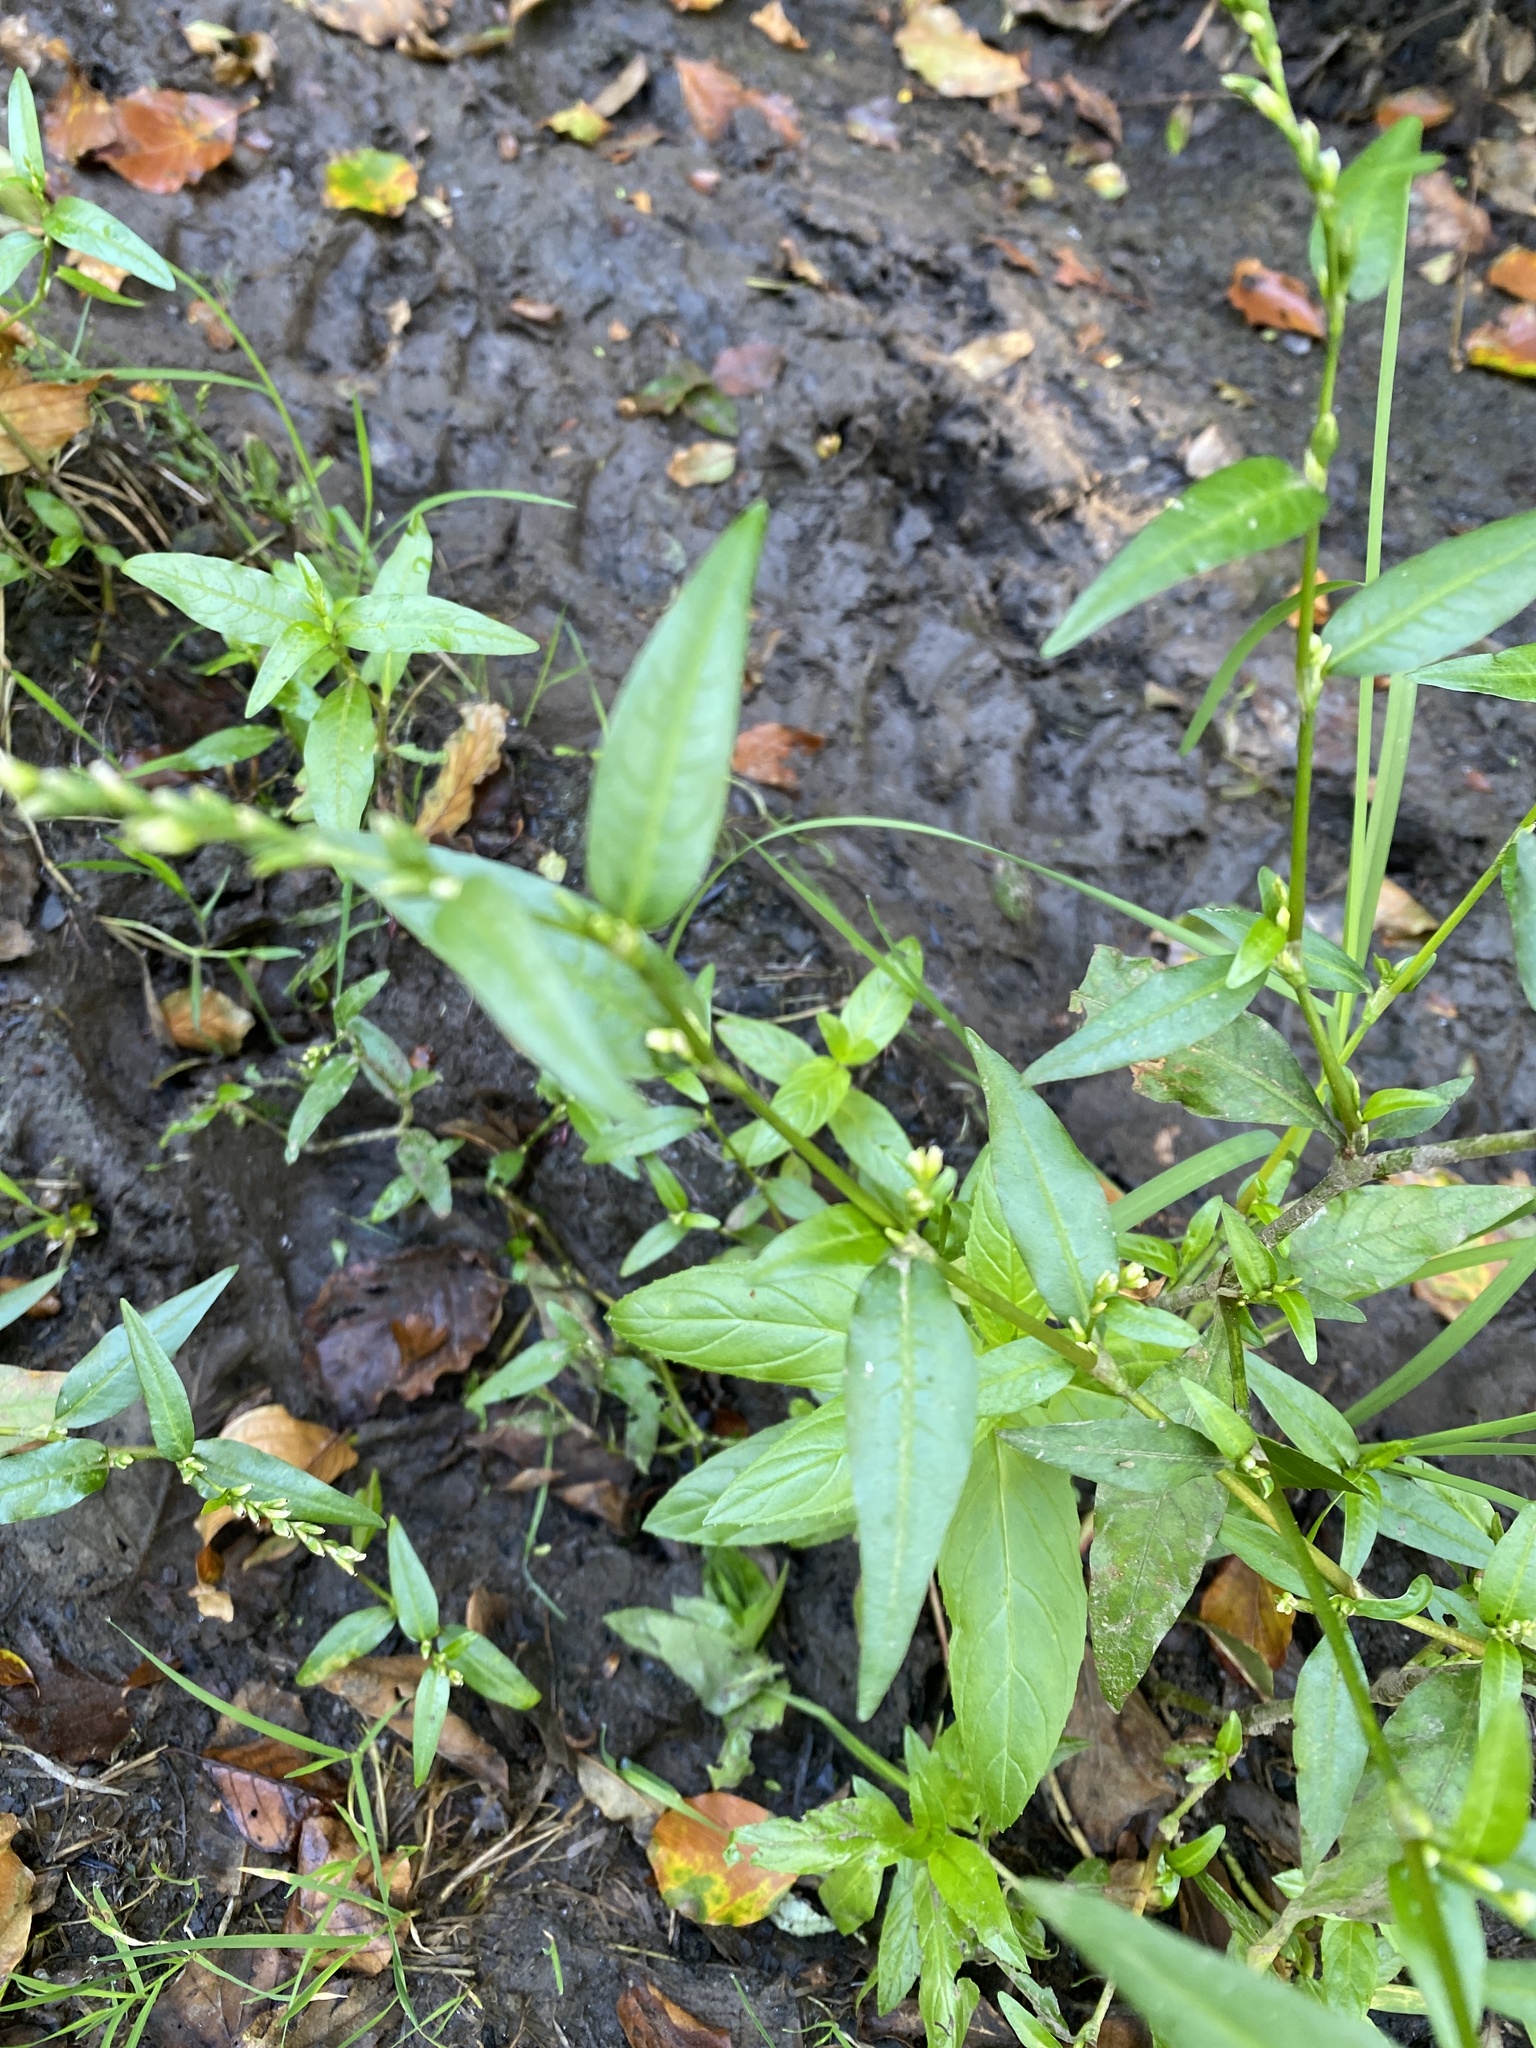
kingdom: Plantae
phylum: Tracheophyta
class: Magnoliopsida
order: Caryophyllales
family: Polygonaceae
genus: Persicaria
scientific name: Persicaria hydropiper
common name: Water-pepper
